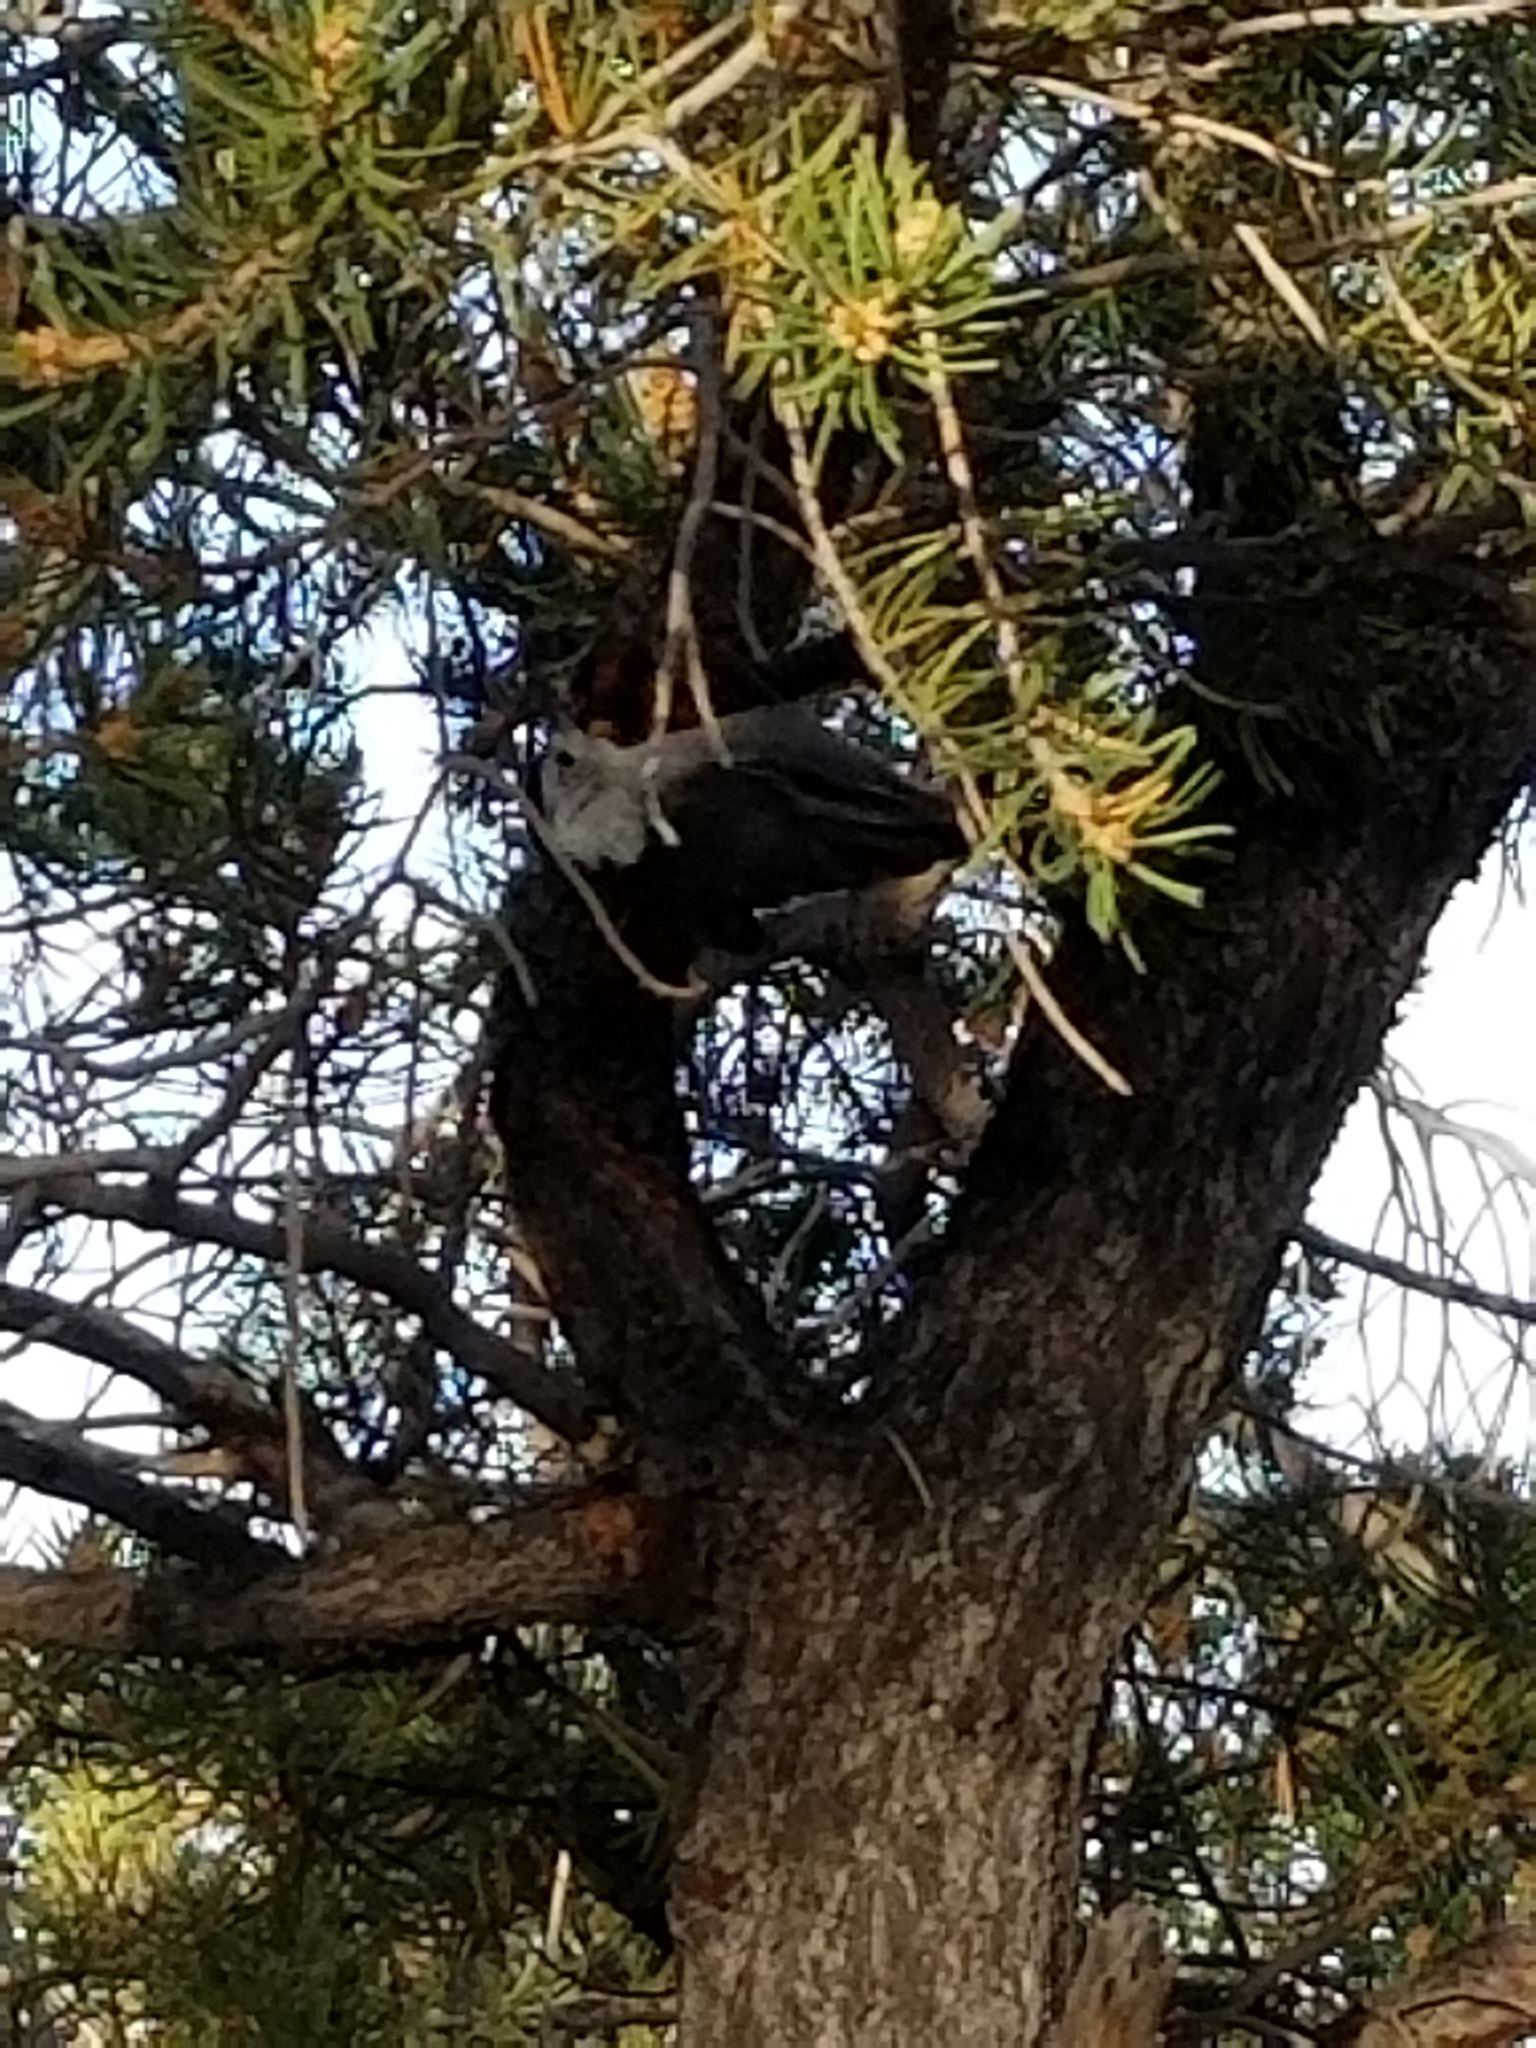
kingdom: Animalia
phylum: Chordata
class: Aves
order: Passeriformes
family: Sittidae
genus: Sitta
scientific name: Sitta carolinensis
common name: White-breasted nuthatch
